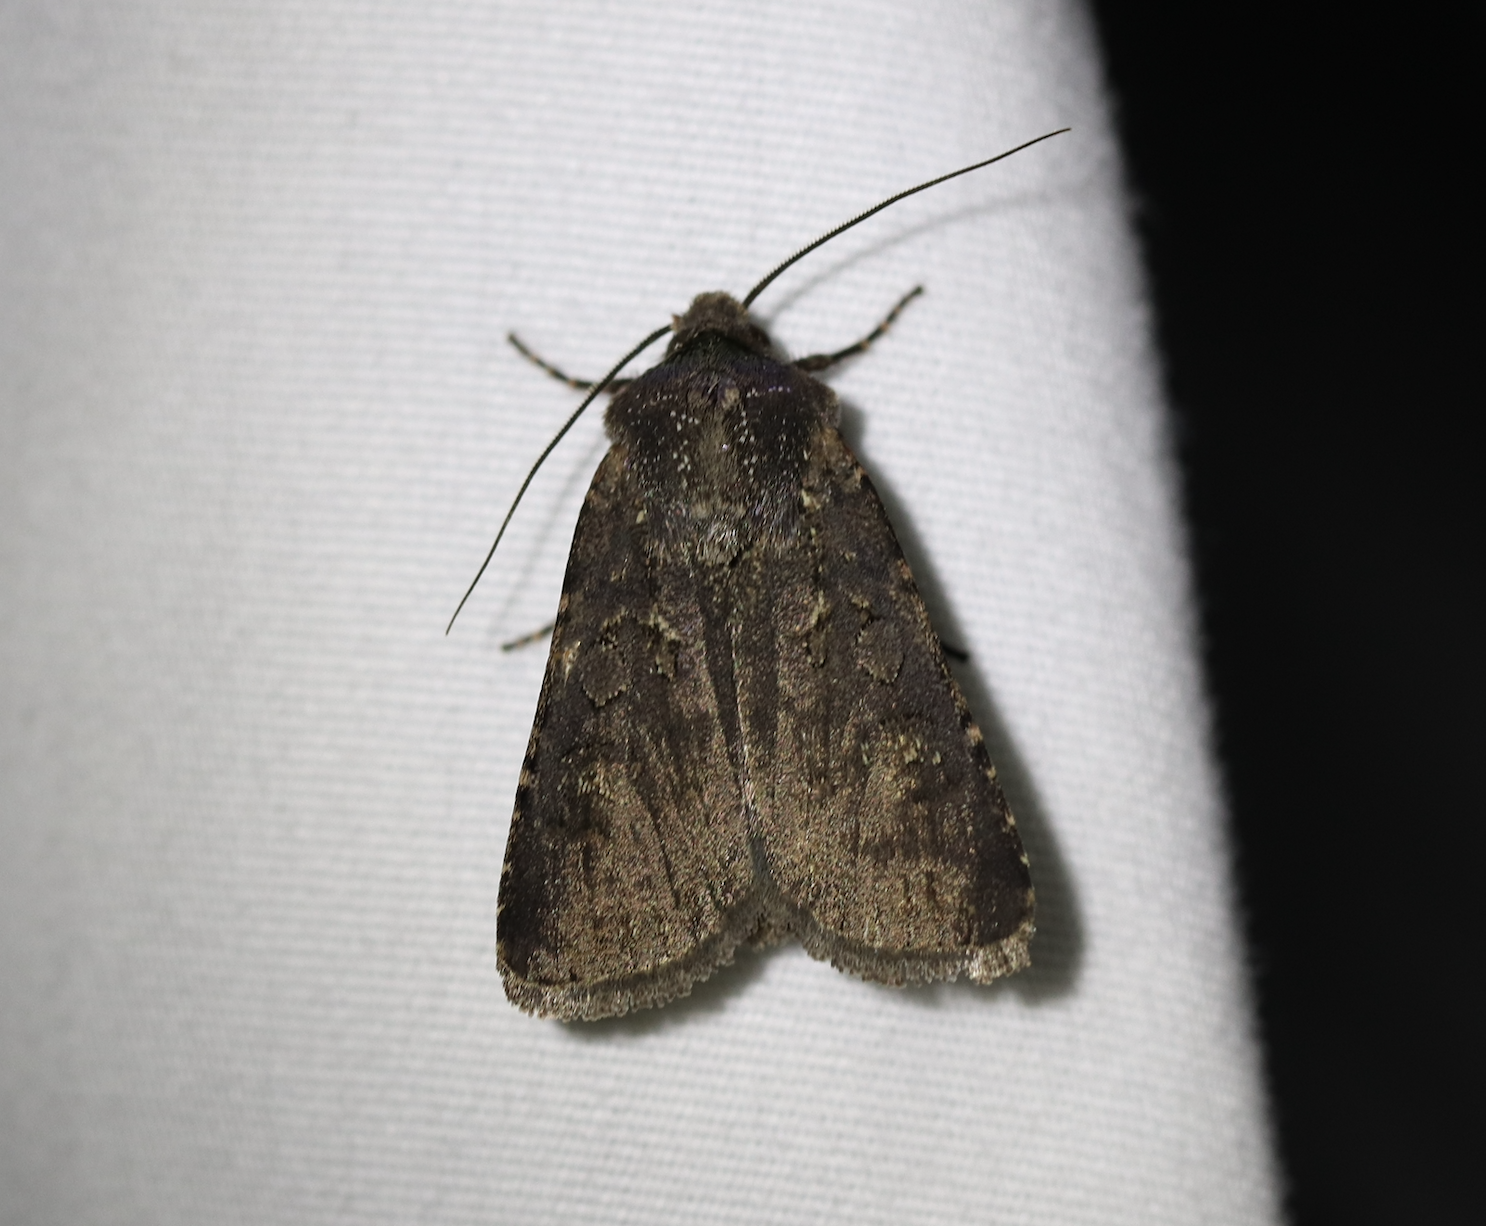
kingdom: Animalia
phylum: Arthropoda
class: Insecta
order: Lepidoptera
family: Noctuidae
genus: Euxoa
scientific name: Euxoa nigricans
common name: Garden dart
